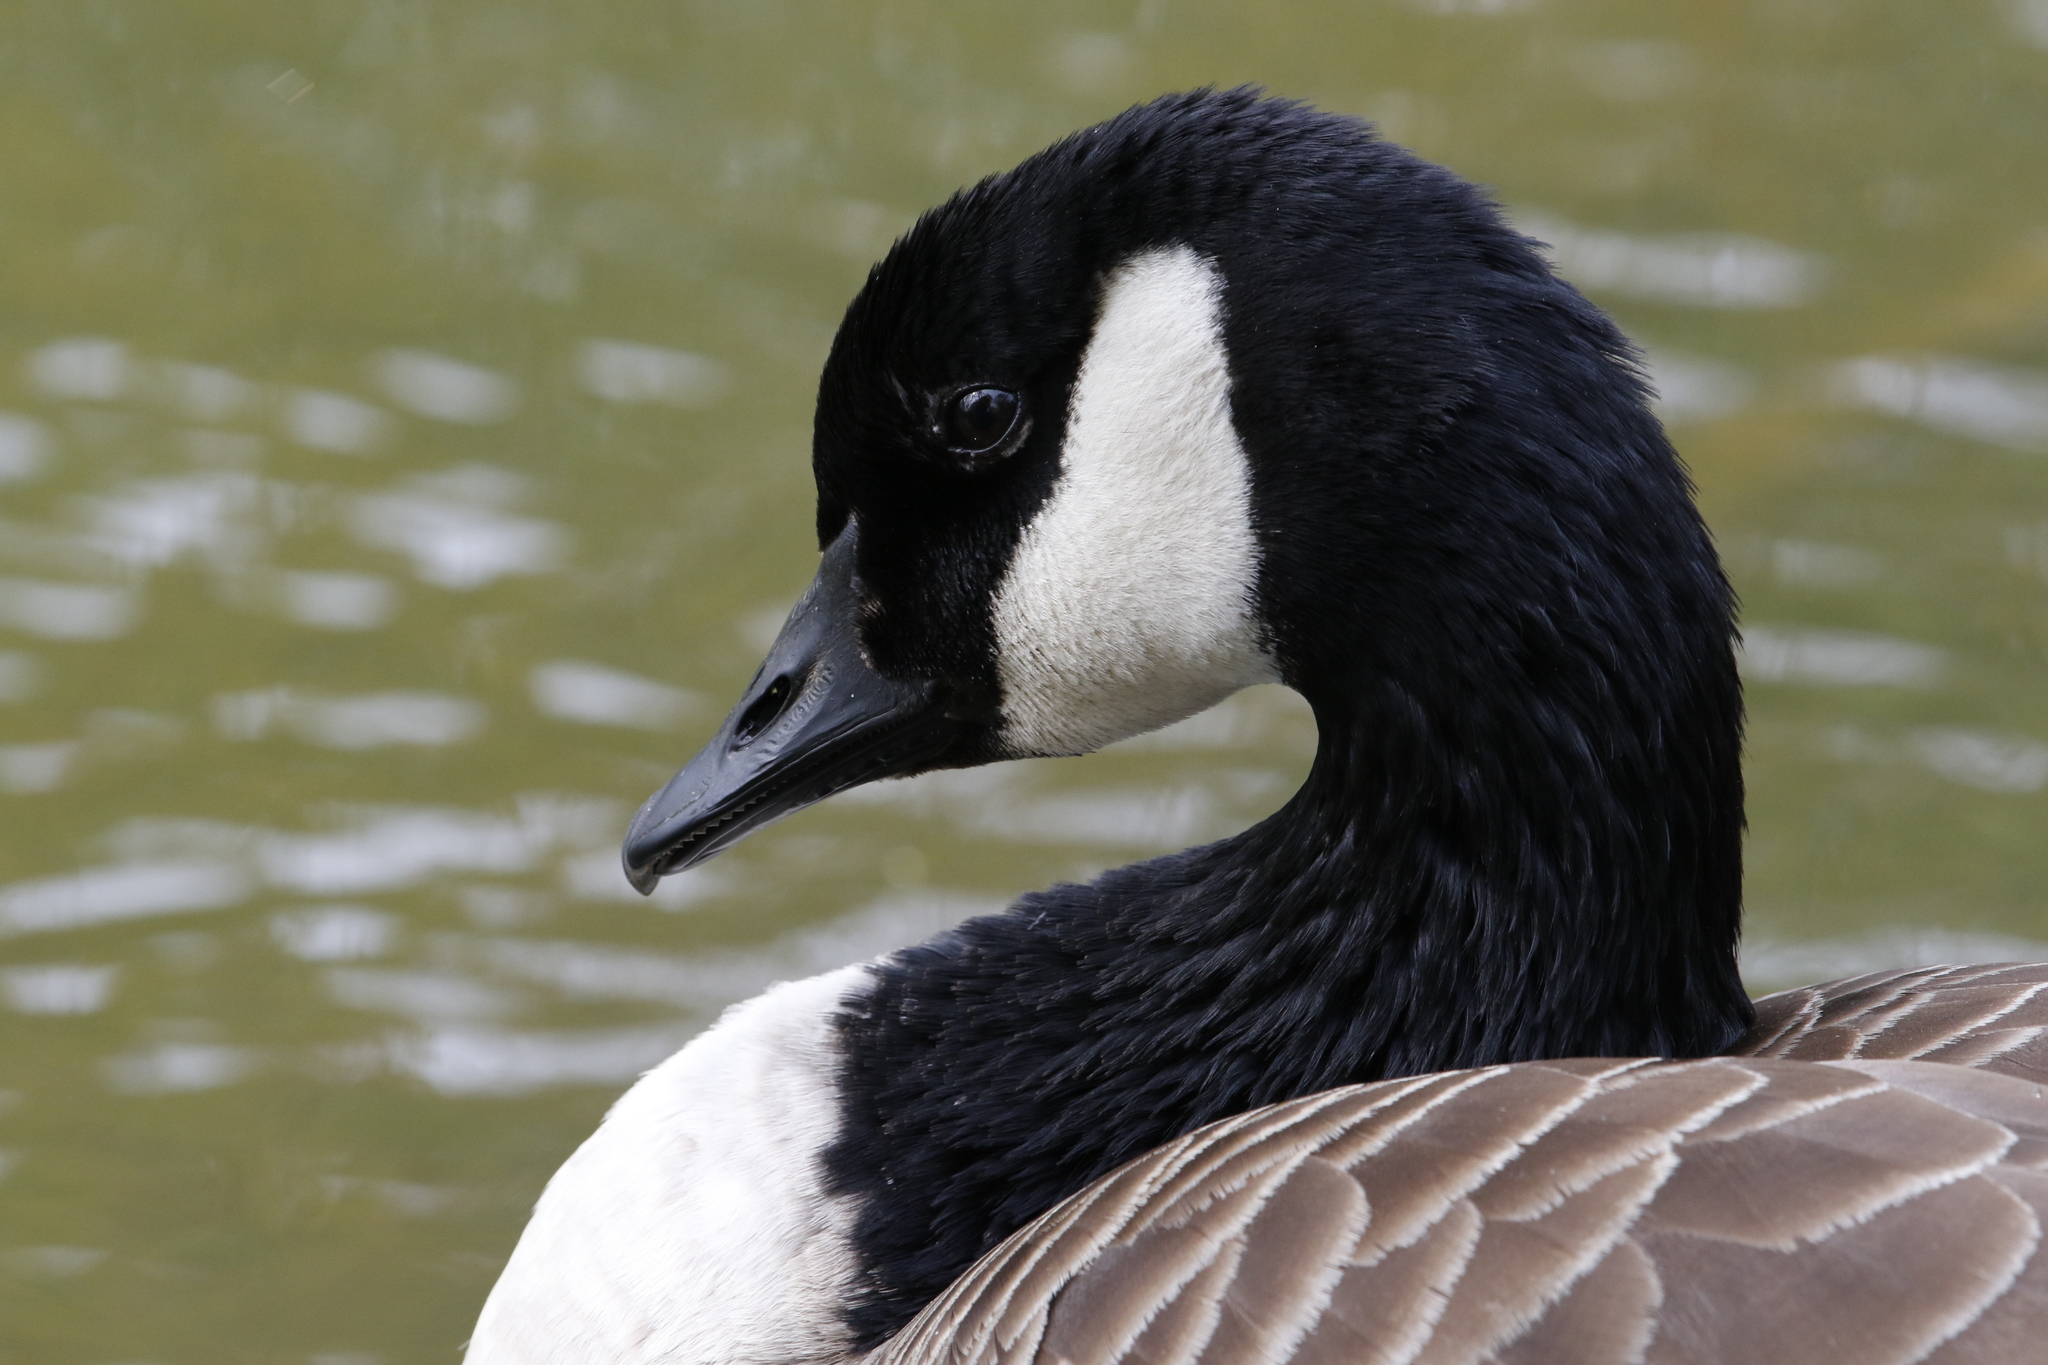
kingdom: Animalia
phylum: Chordata
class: Aves
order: Anseriformes
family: Anatidae
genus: Branta
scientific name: Branta canadensis
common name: Canada goose
